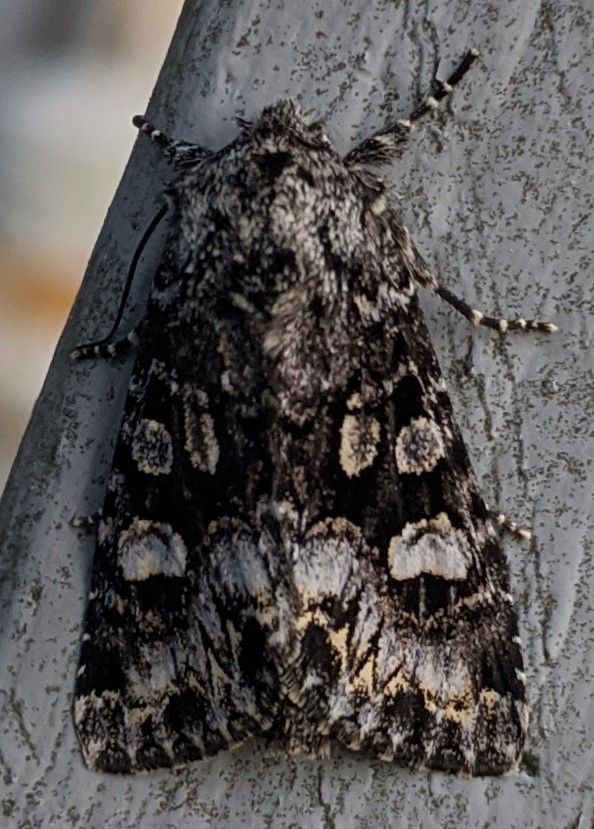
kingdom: Animalia
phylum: Arthropoda
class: Insecta
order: Lepidoptera
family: Noctuidae
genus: Melanchra
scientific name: Melanchra adjuncta
